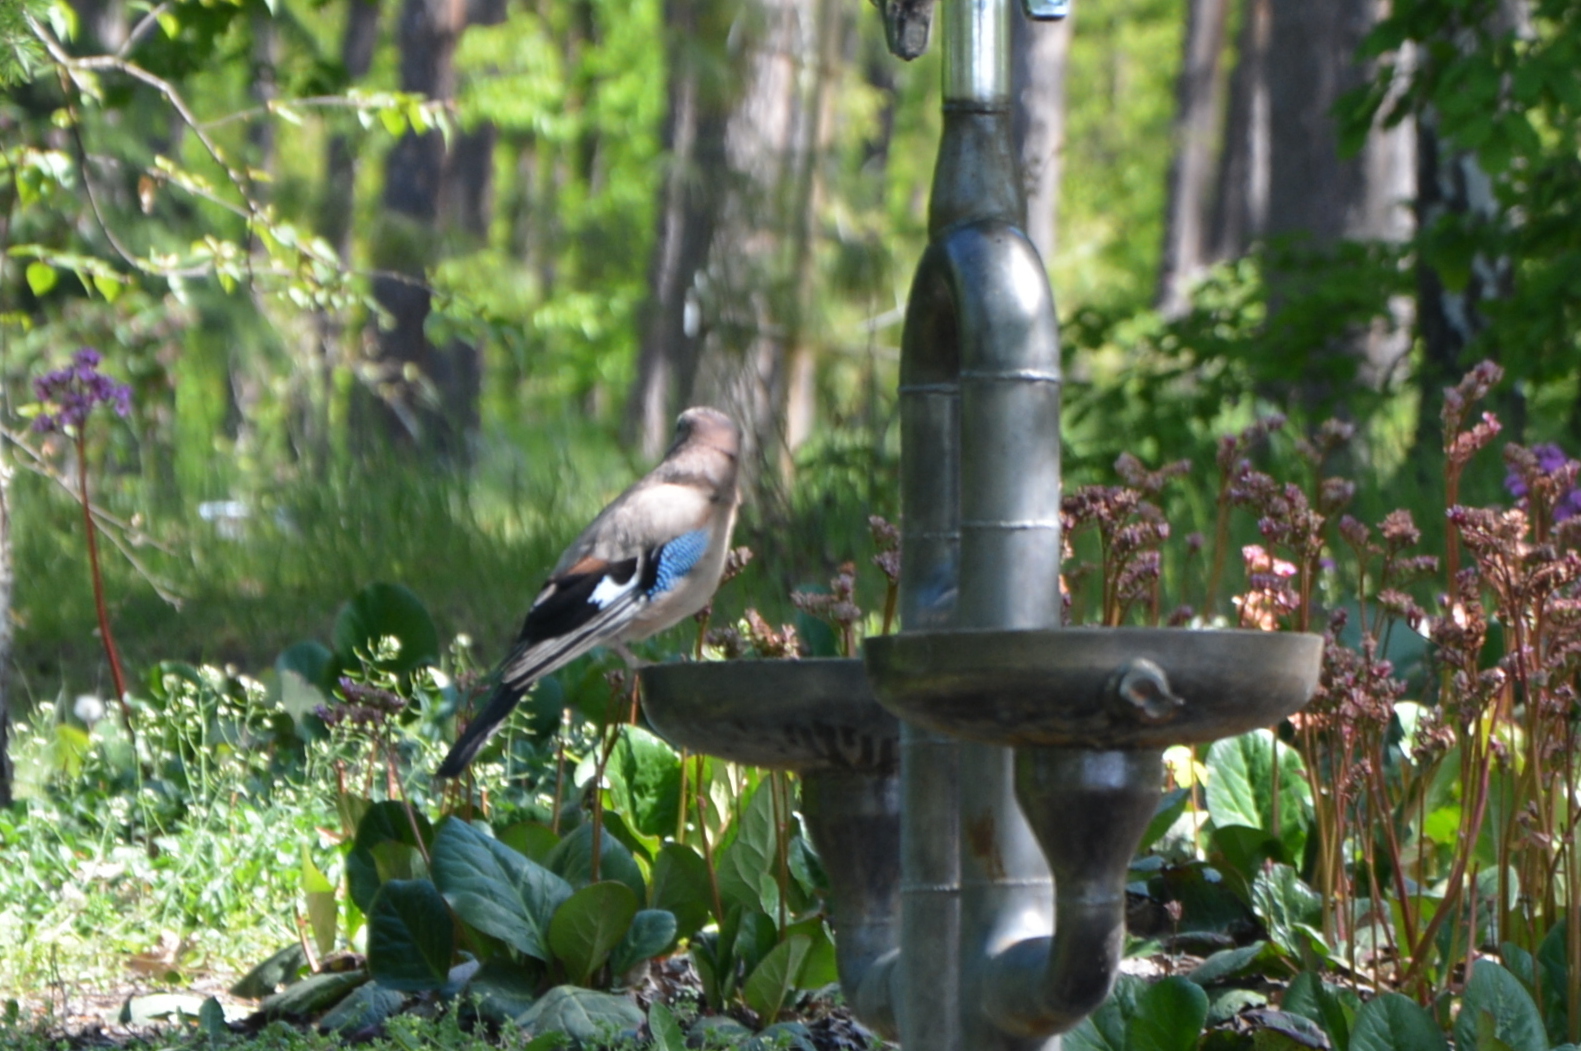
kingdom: Animalia
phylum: Chordata
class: Aves
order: Passeriformes
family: Corvidae
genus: Garrulus
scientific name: Garrulus glandarius
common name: Eurasian jay
